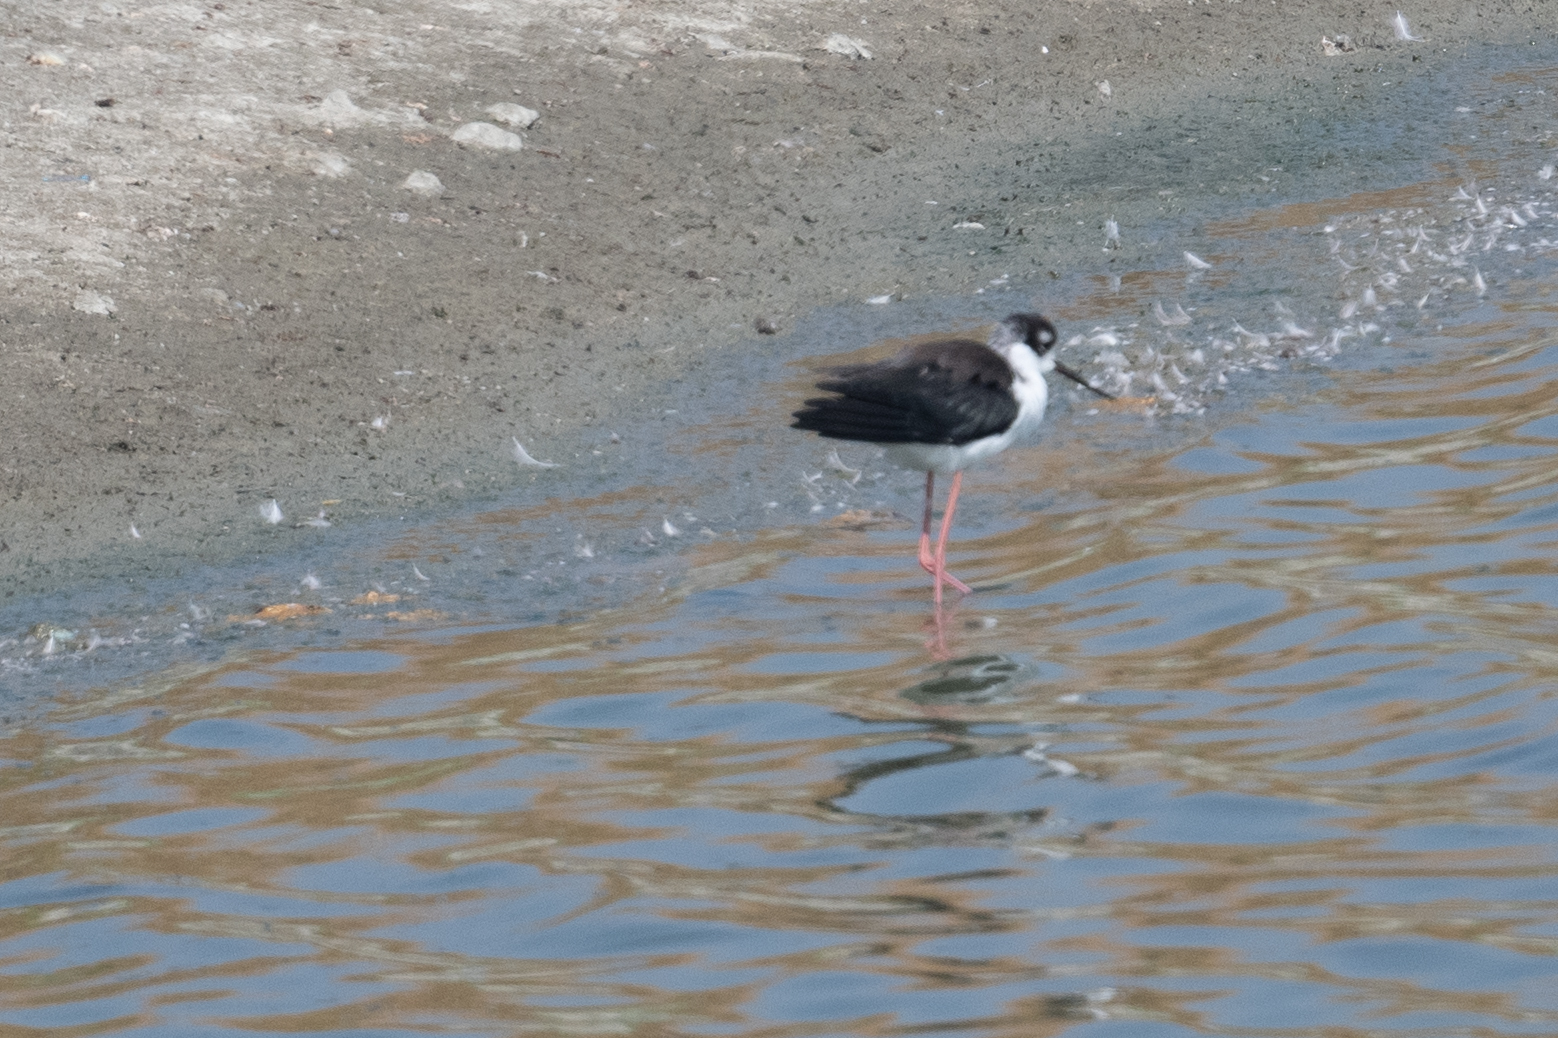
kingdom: Animalia
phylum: Chordata
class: Aves
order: Charadriiformes
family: Recurvirostridae
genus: Himantopus
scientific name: Himantopus mexicanus
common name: Black-necked stilt
